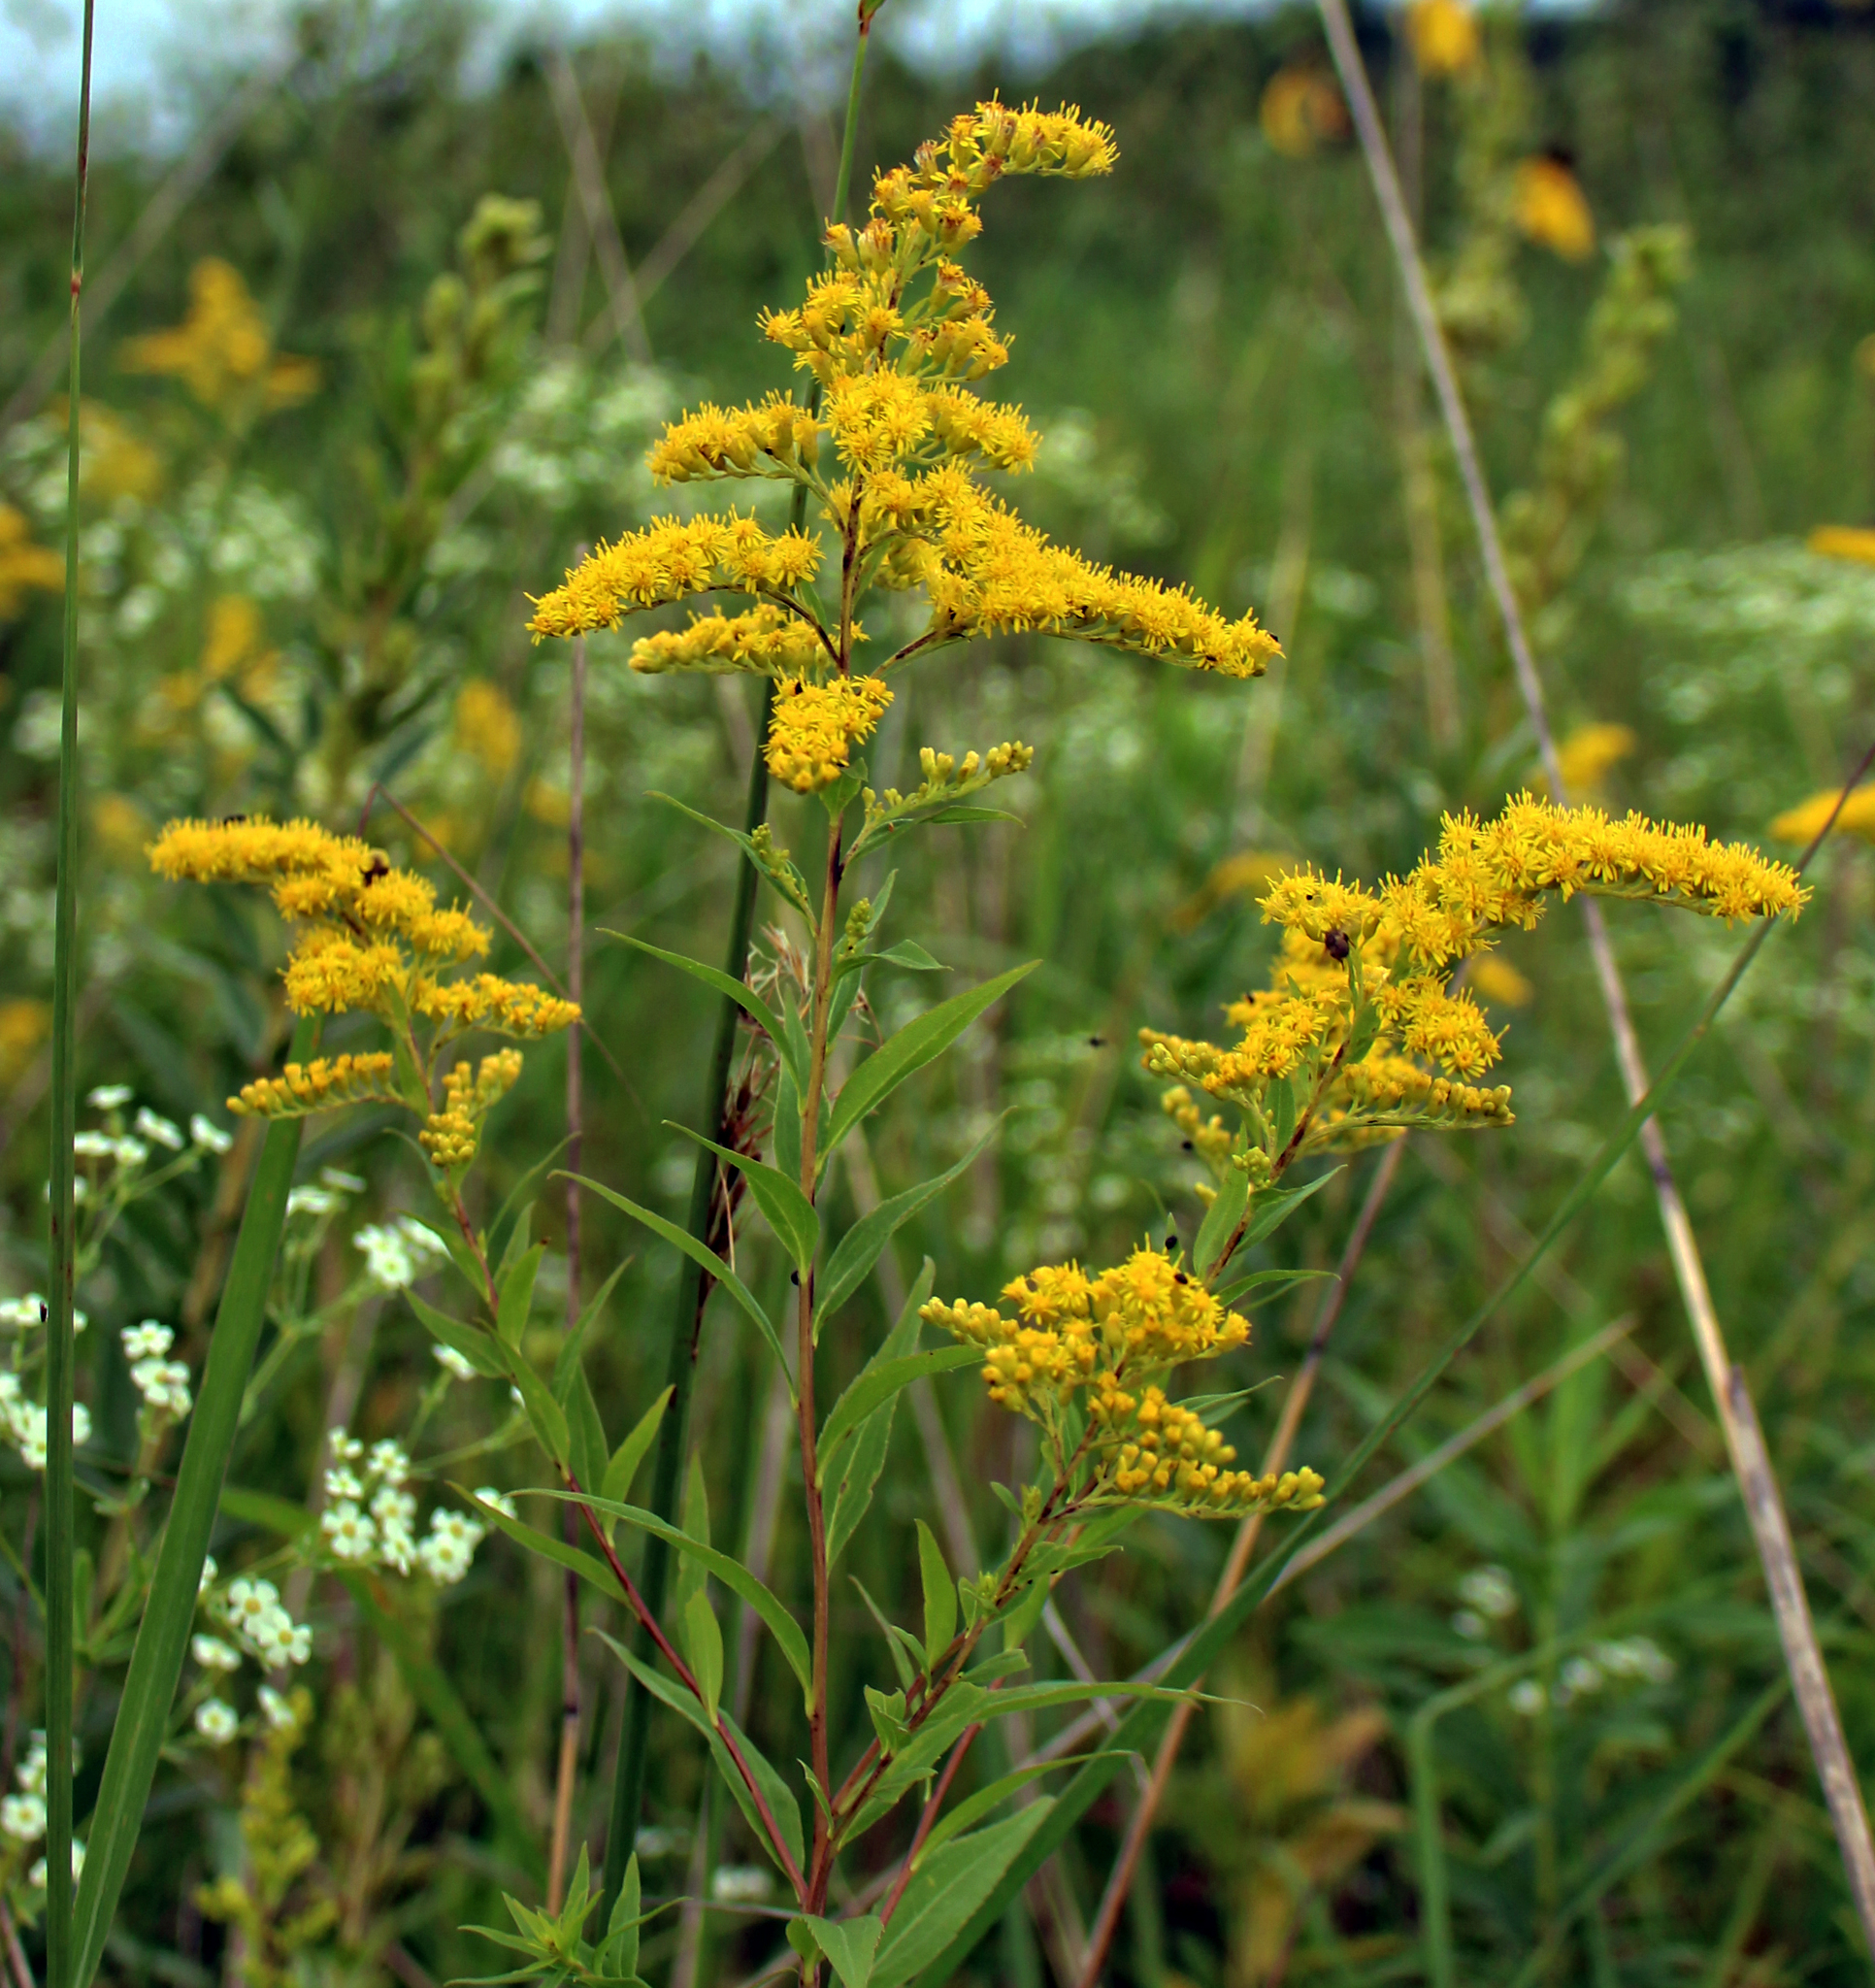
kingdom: Plantae
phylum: Tracheophyta
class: Magnoliopsida
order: Asterales
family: Asteraceae
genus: Solidago
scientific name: Solidago juncea
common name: Early goldenrod
